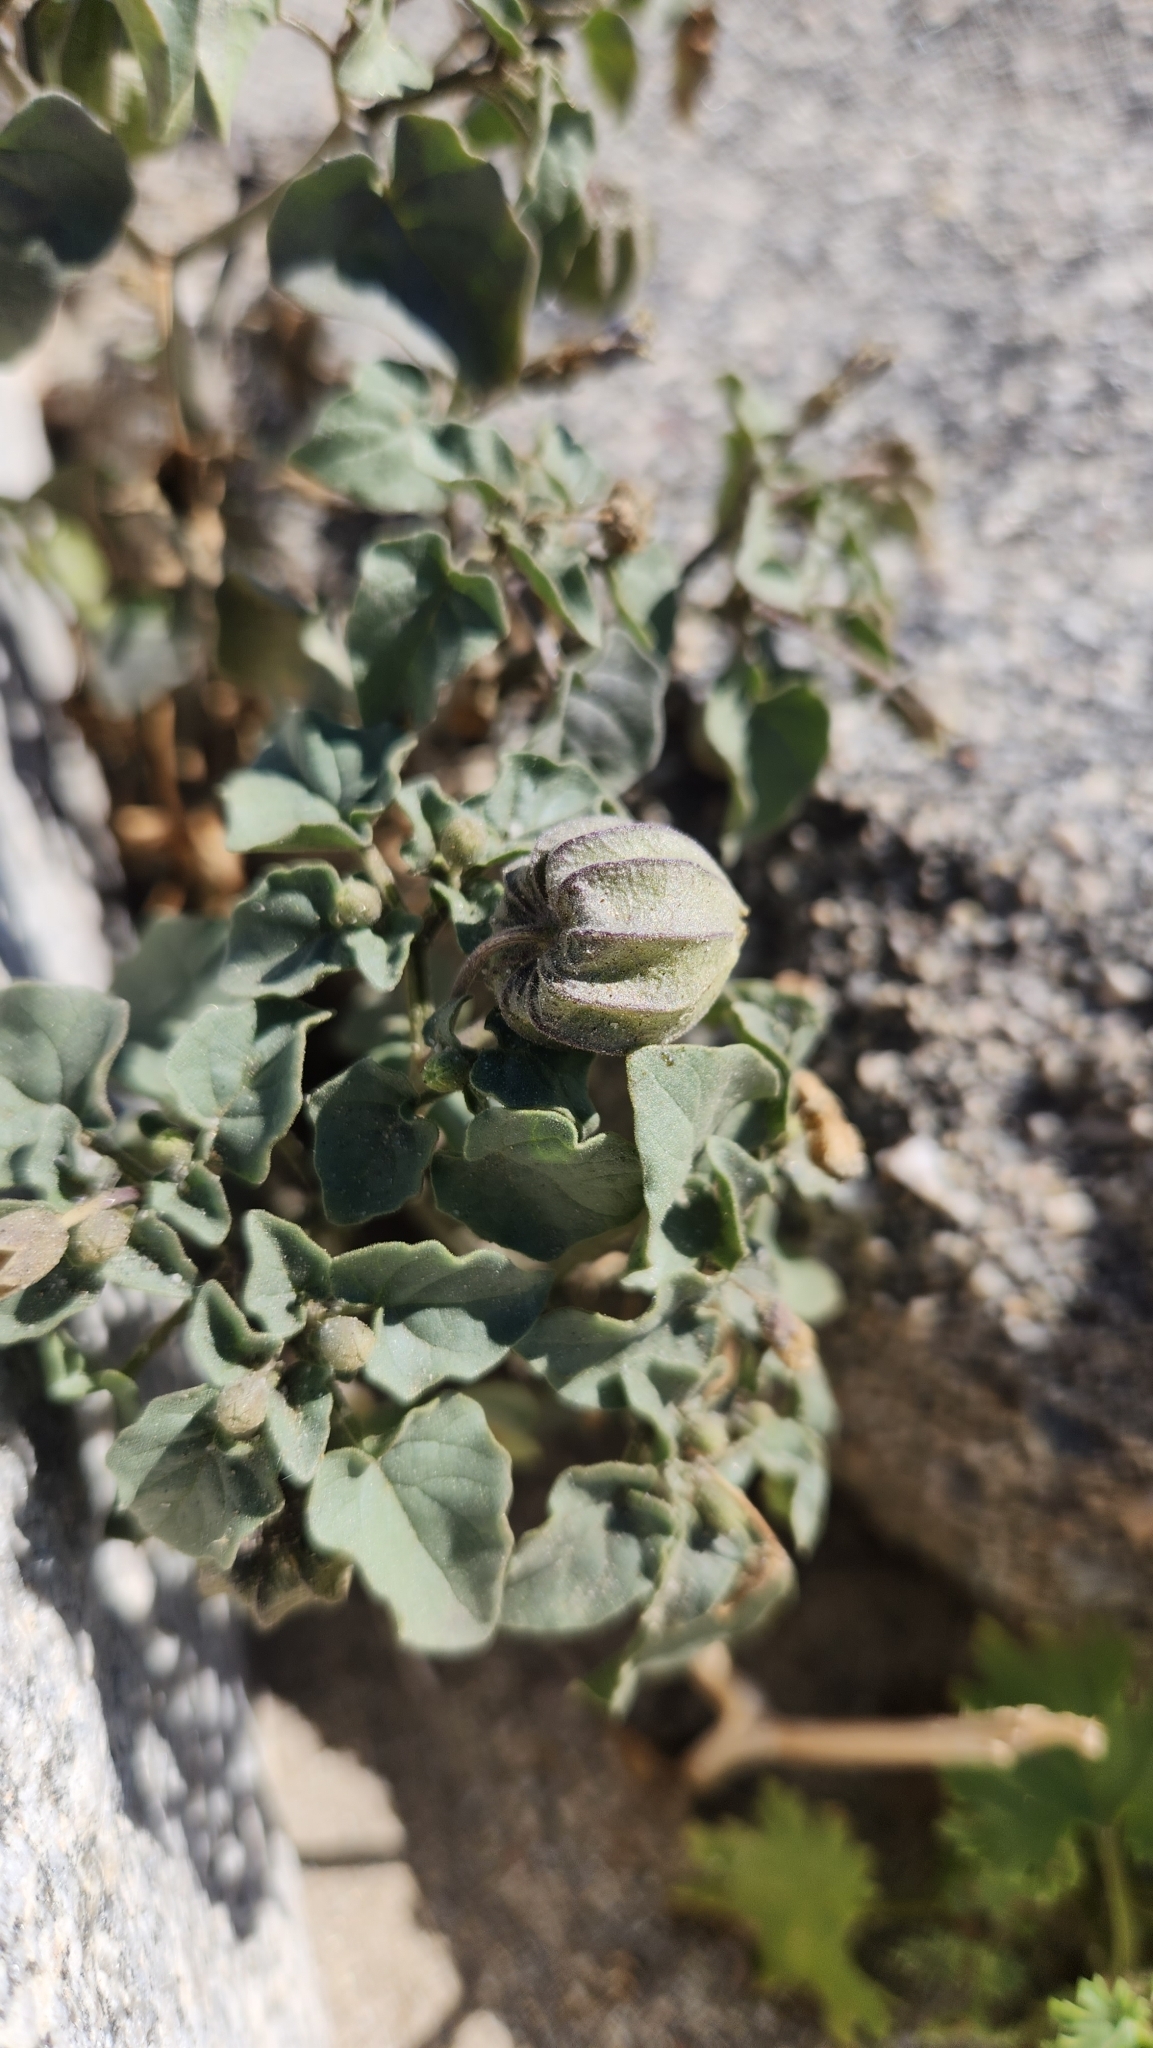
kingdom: Plantae
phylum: Tracheophyta
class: Magnoliopsida
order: Solanales
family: Solanaceae
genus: Physalis
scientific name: Physalis crassifolia
